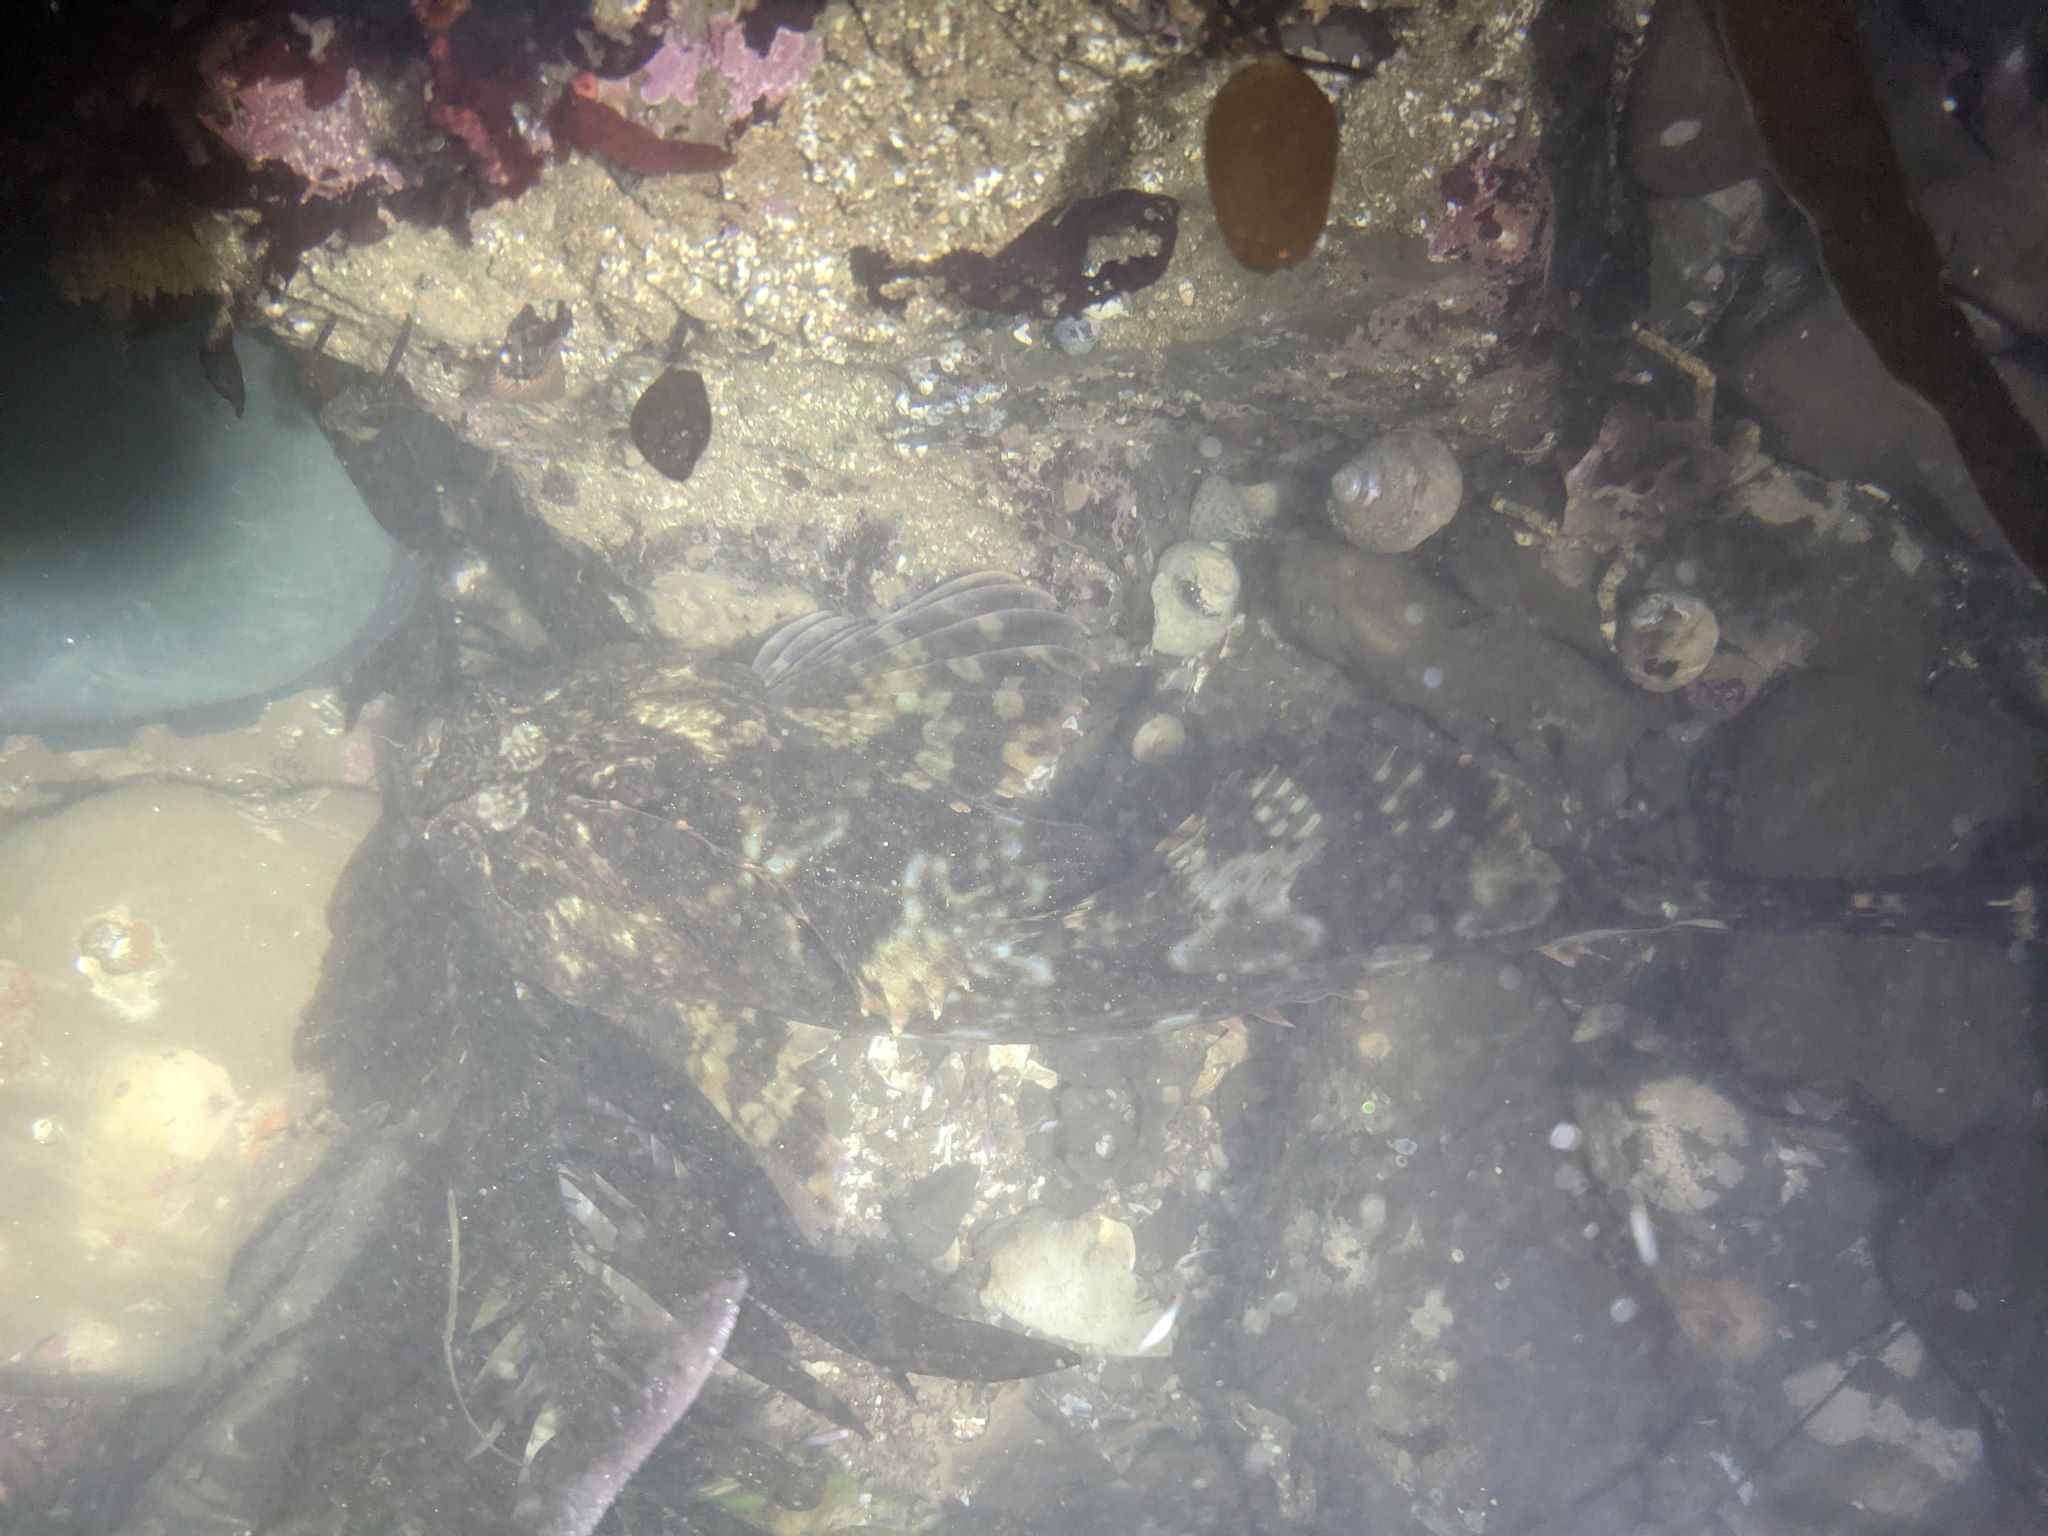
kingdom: Animalia
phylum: Chordata
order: Scorpaeniformes
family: Cottidae
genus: Scorpaenichthys
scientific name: Scorpaenichthys marmoratus
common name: Cabezon
